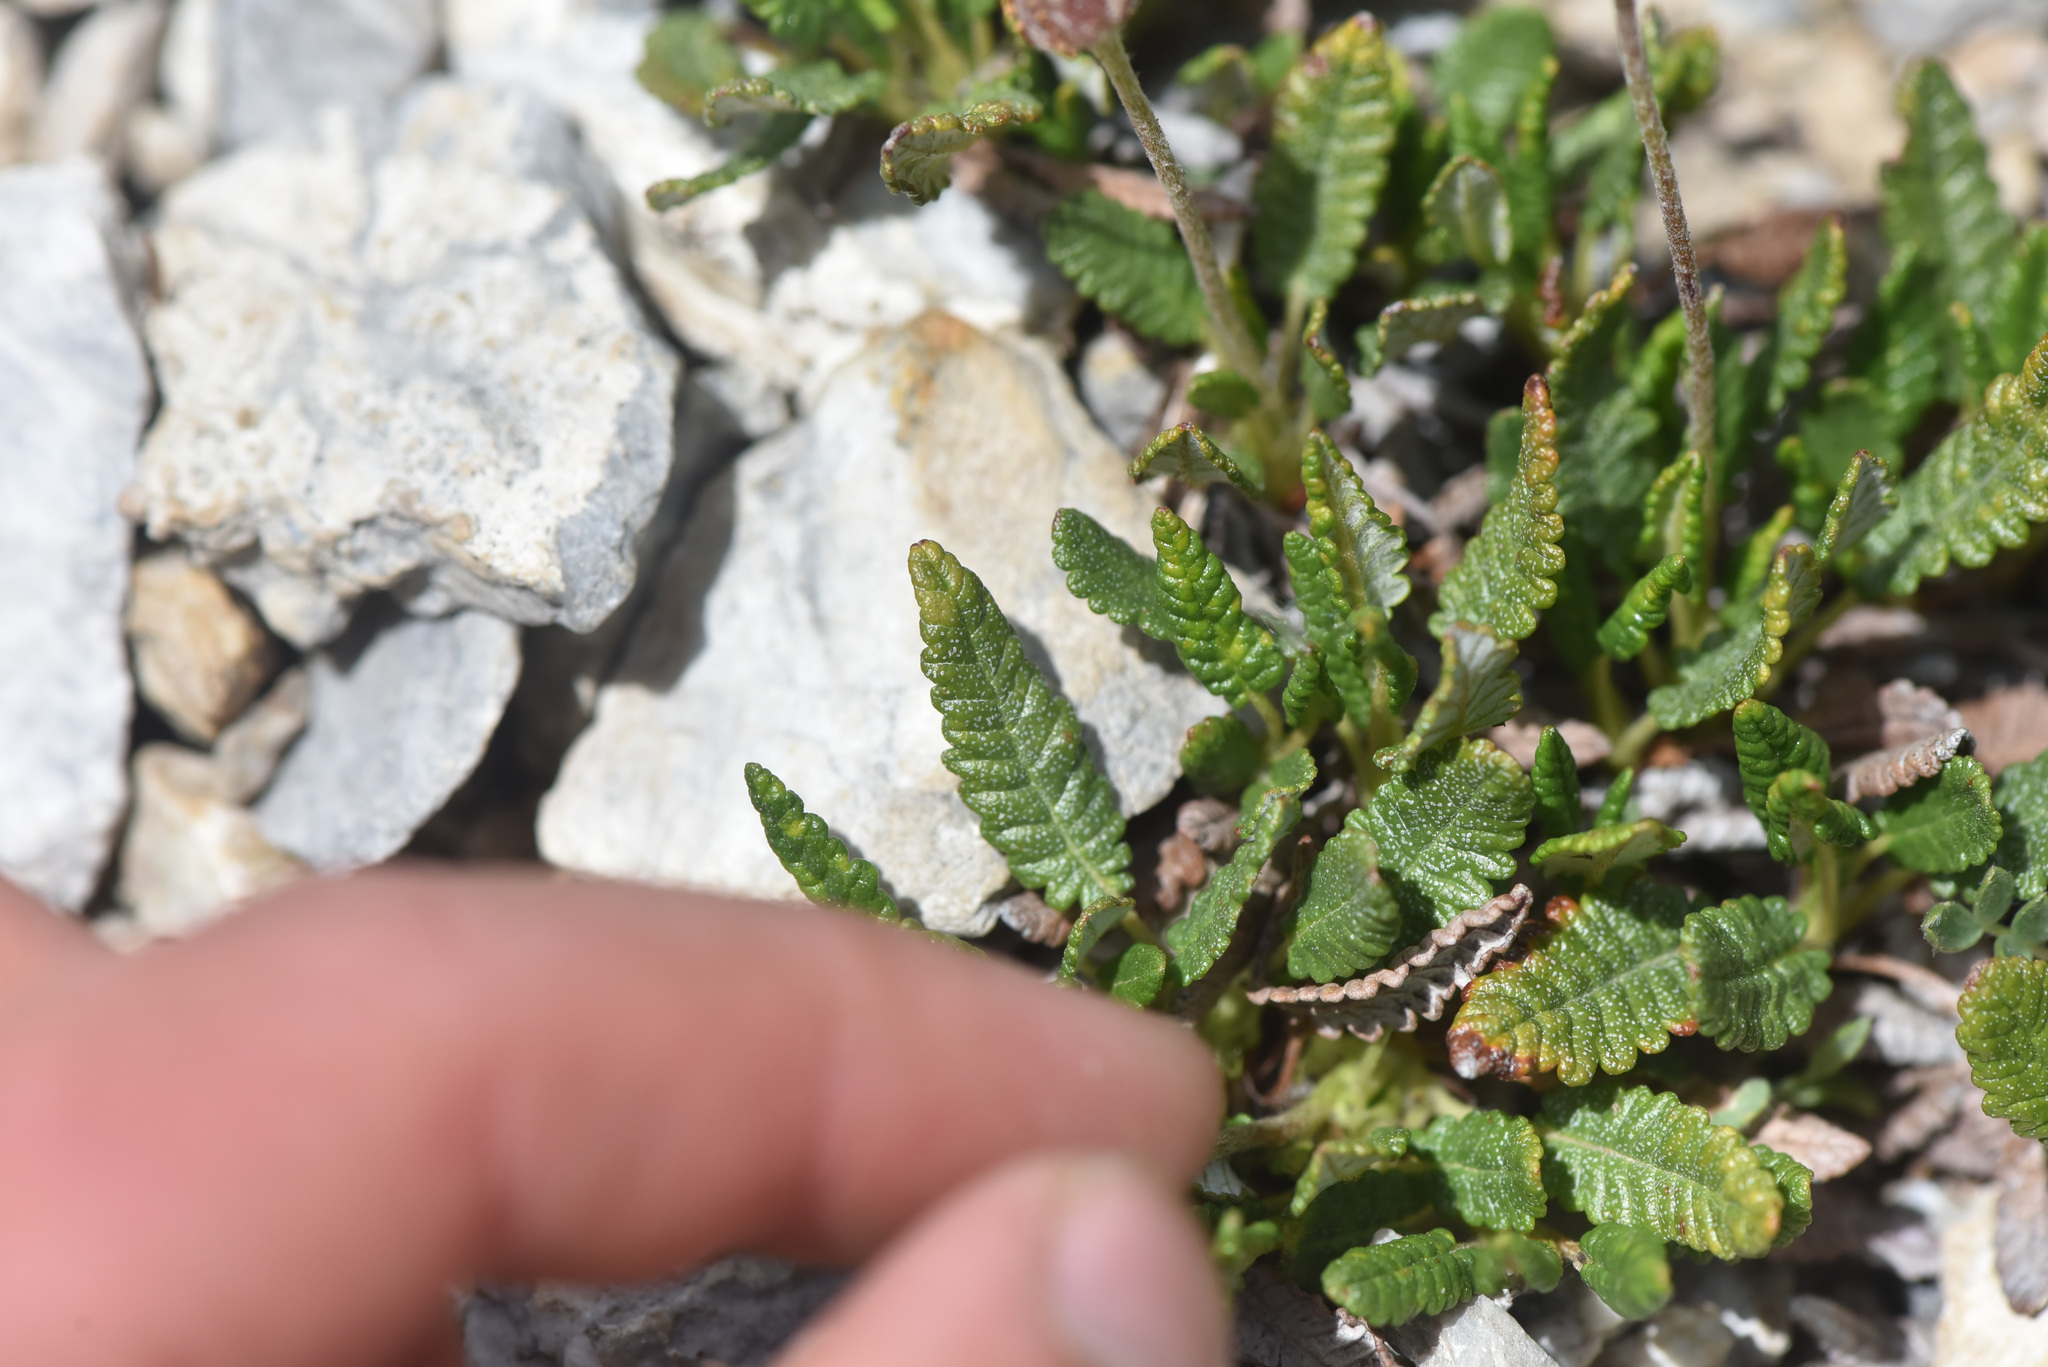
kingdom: Plantae
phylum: Tracheophyta
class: Magnoliopsida
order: Rosales
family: Rosaceae
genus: Dryas
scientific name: Dryas octopetala
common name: Eight-petal mountain-avens
